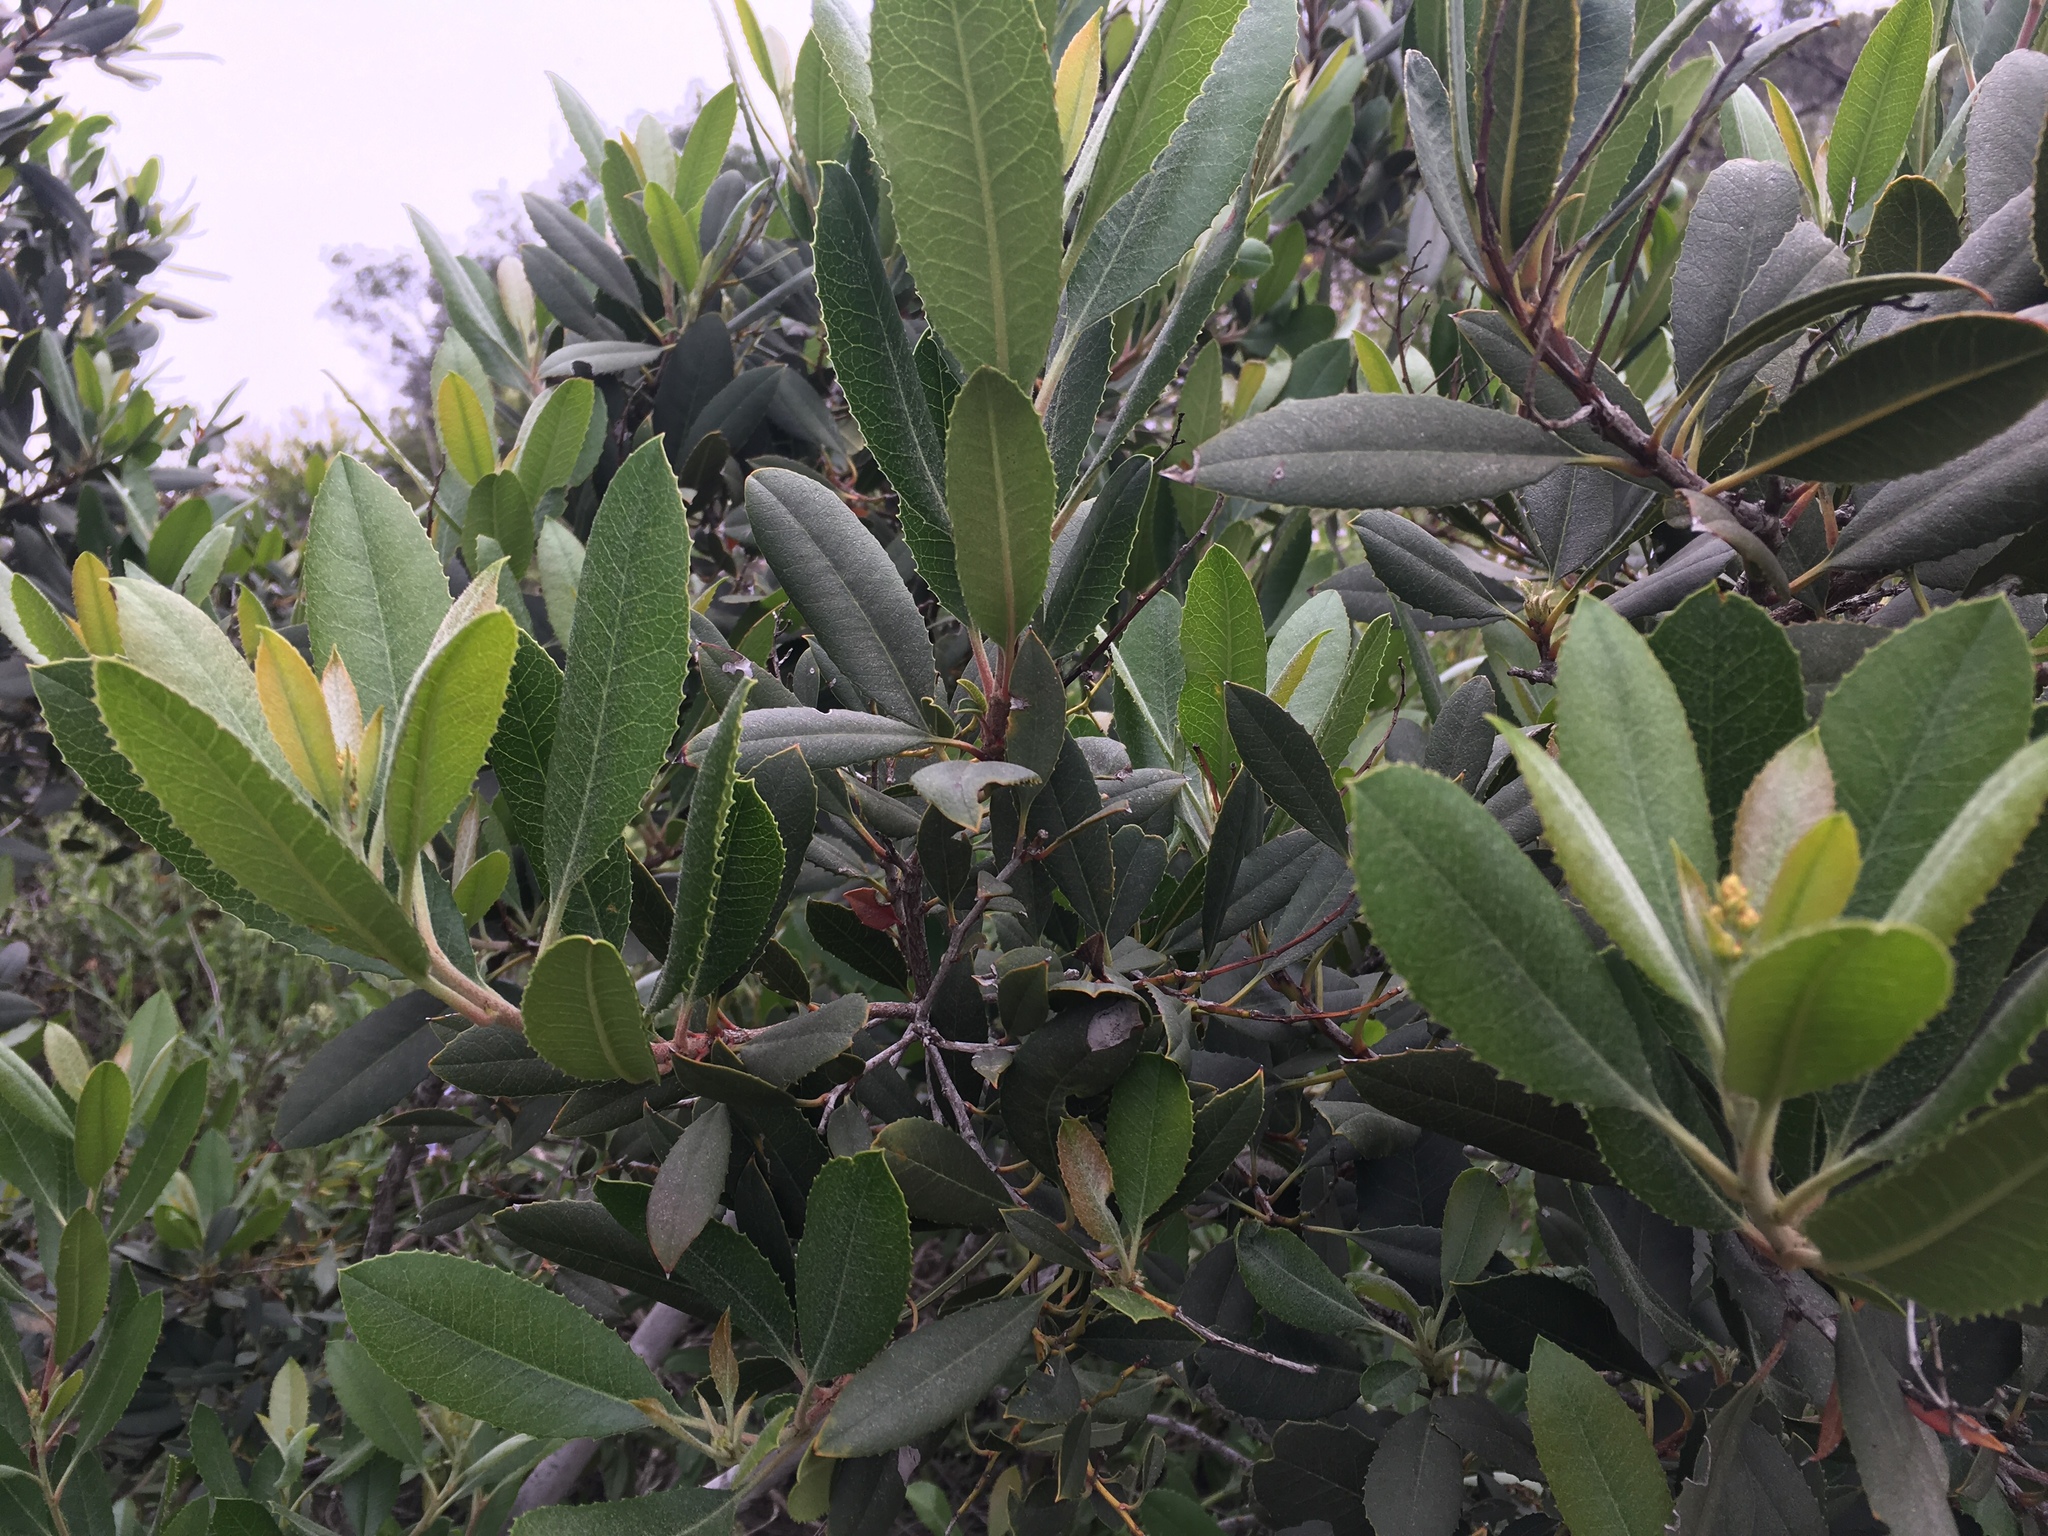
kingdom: Plantae
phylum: Tracheophyta
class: Magnoliopsida
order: Rosales
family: Rosaceae
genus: Heteromeles
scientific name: Heteromeles arbutifolia
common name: California-holly
